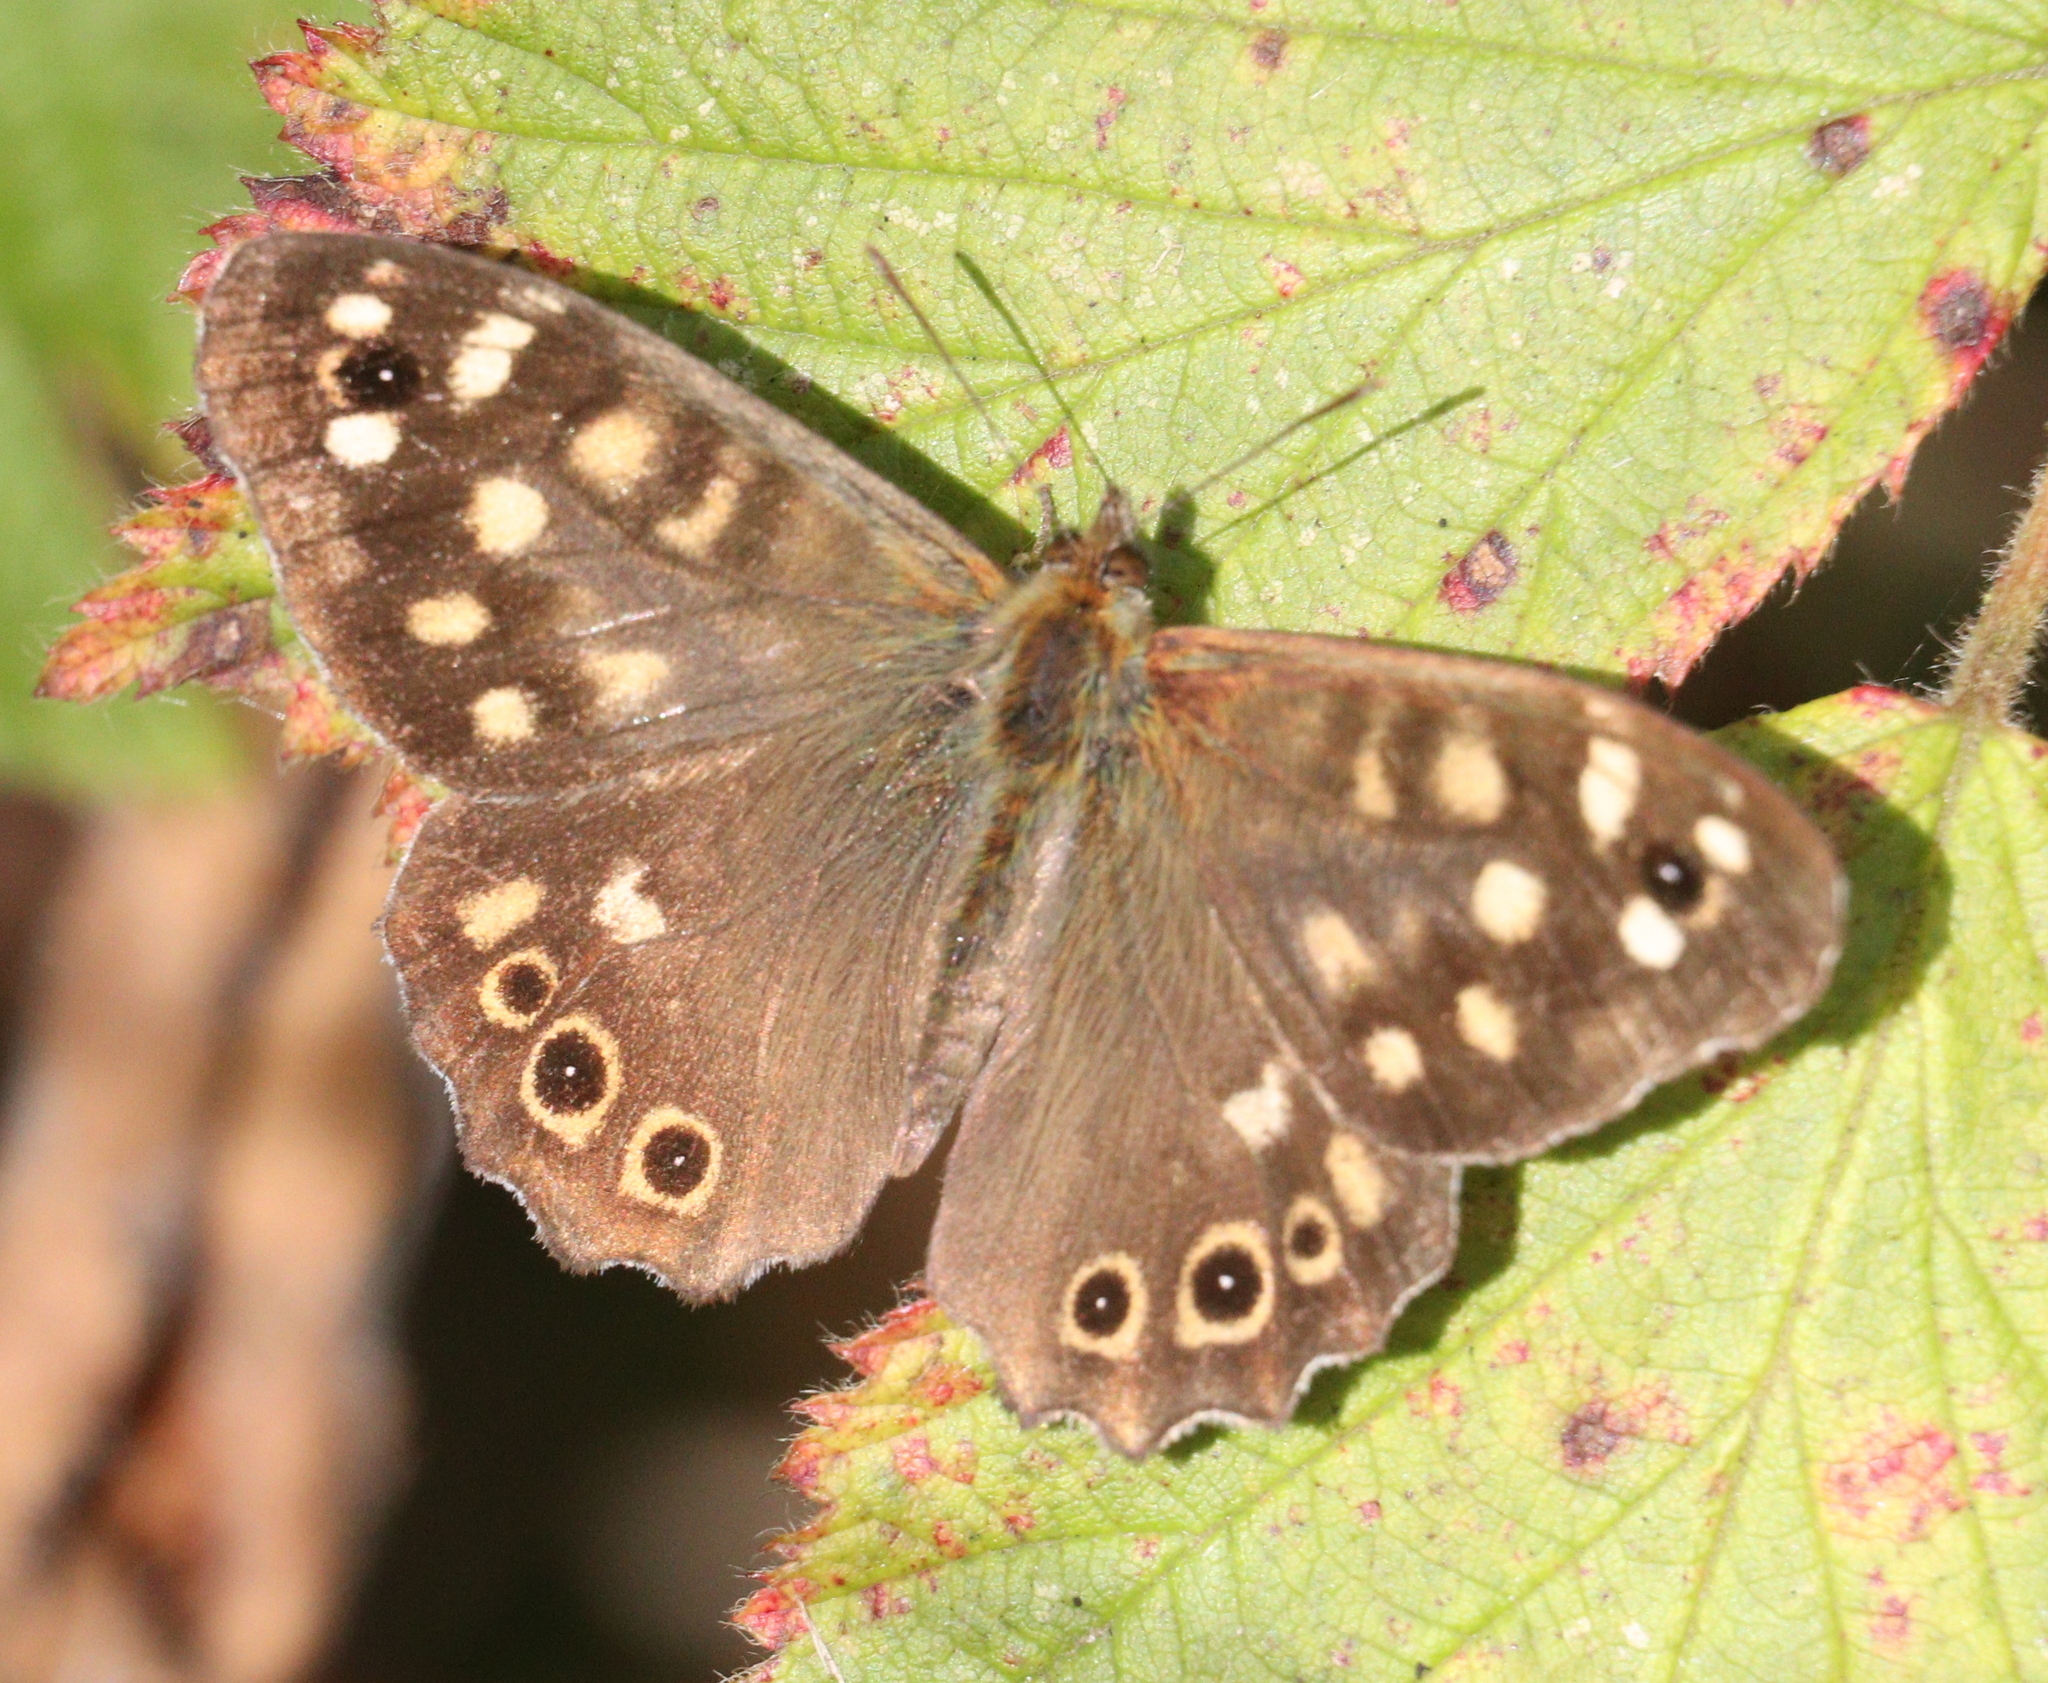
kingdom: Animalia
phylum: Arthropoda
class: Insecta
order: Lepidoptera
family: Nymphalidae
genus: Pararge
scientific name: Pararge aegeria
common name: Speckled wood
